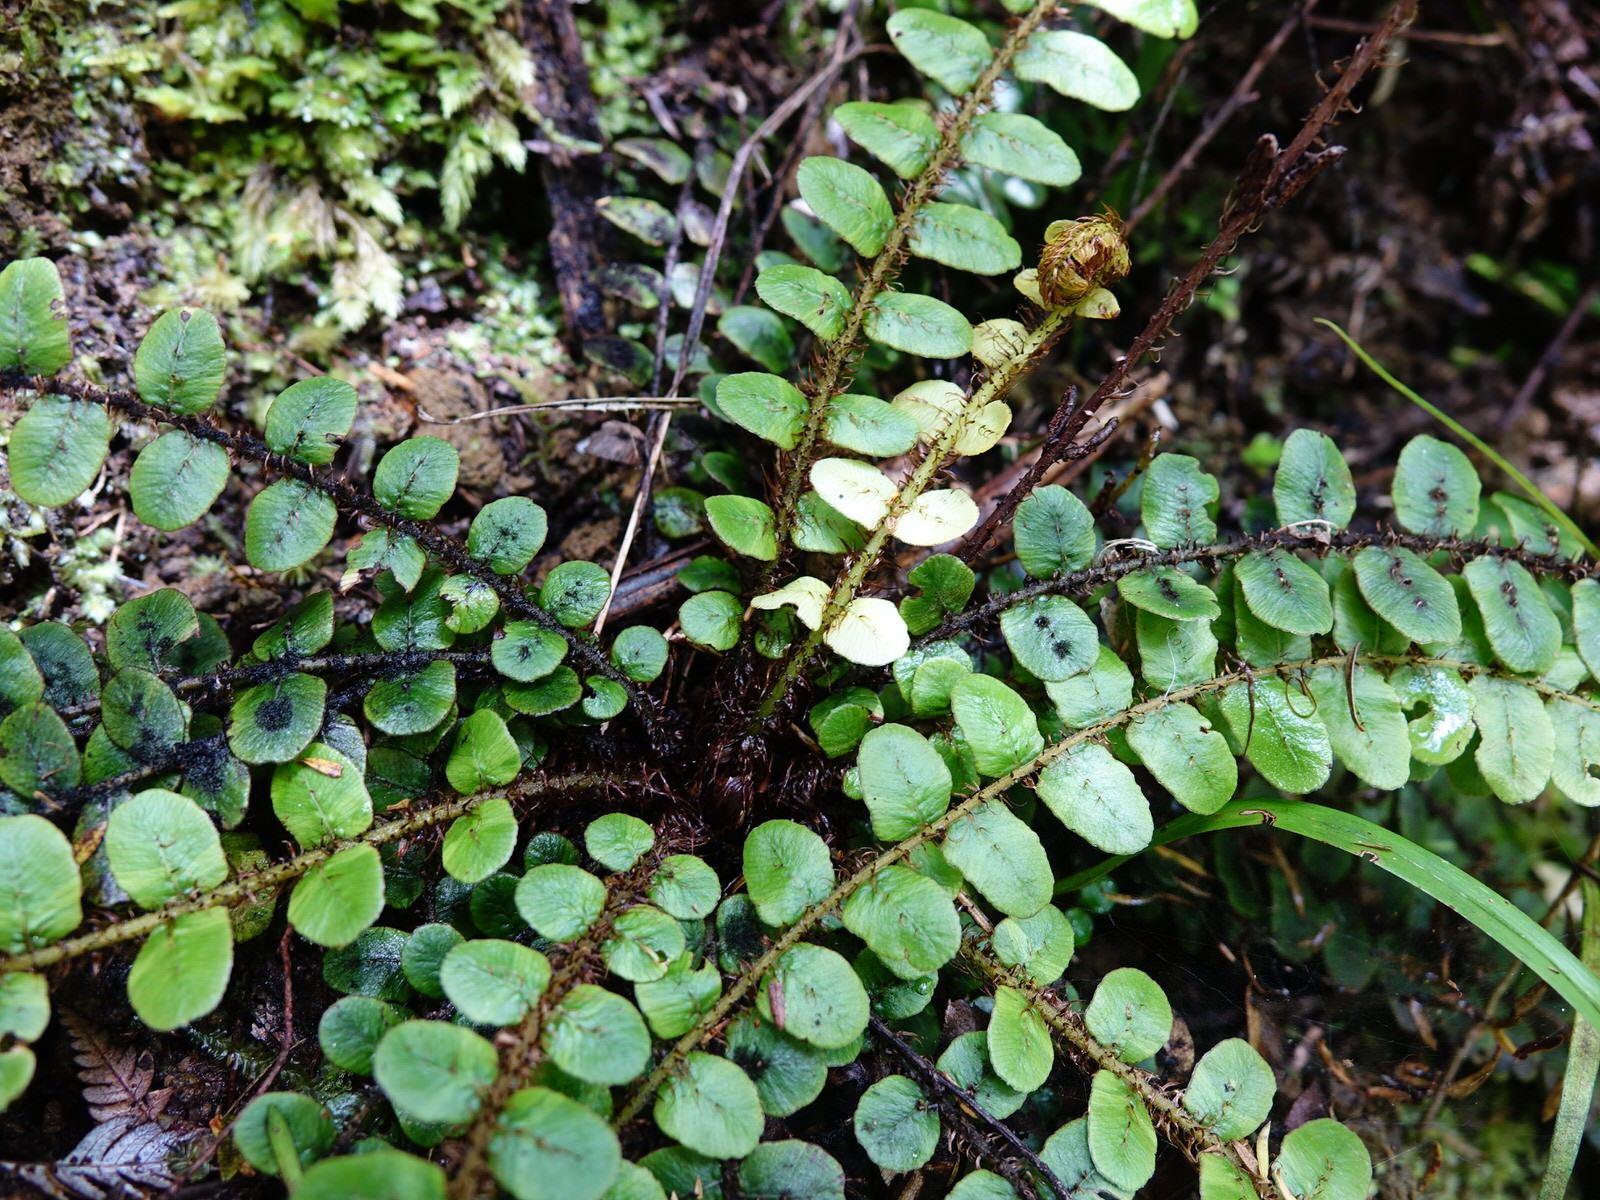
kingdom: Plantae
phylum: Tracheophyta
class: Polypodiopsida
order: Polypodiales
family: Blechnaceae
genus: Cranfillia
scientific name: Cranfillia fluviatilis
